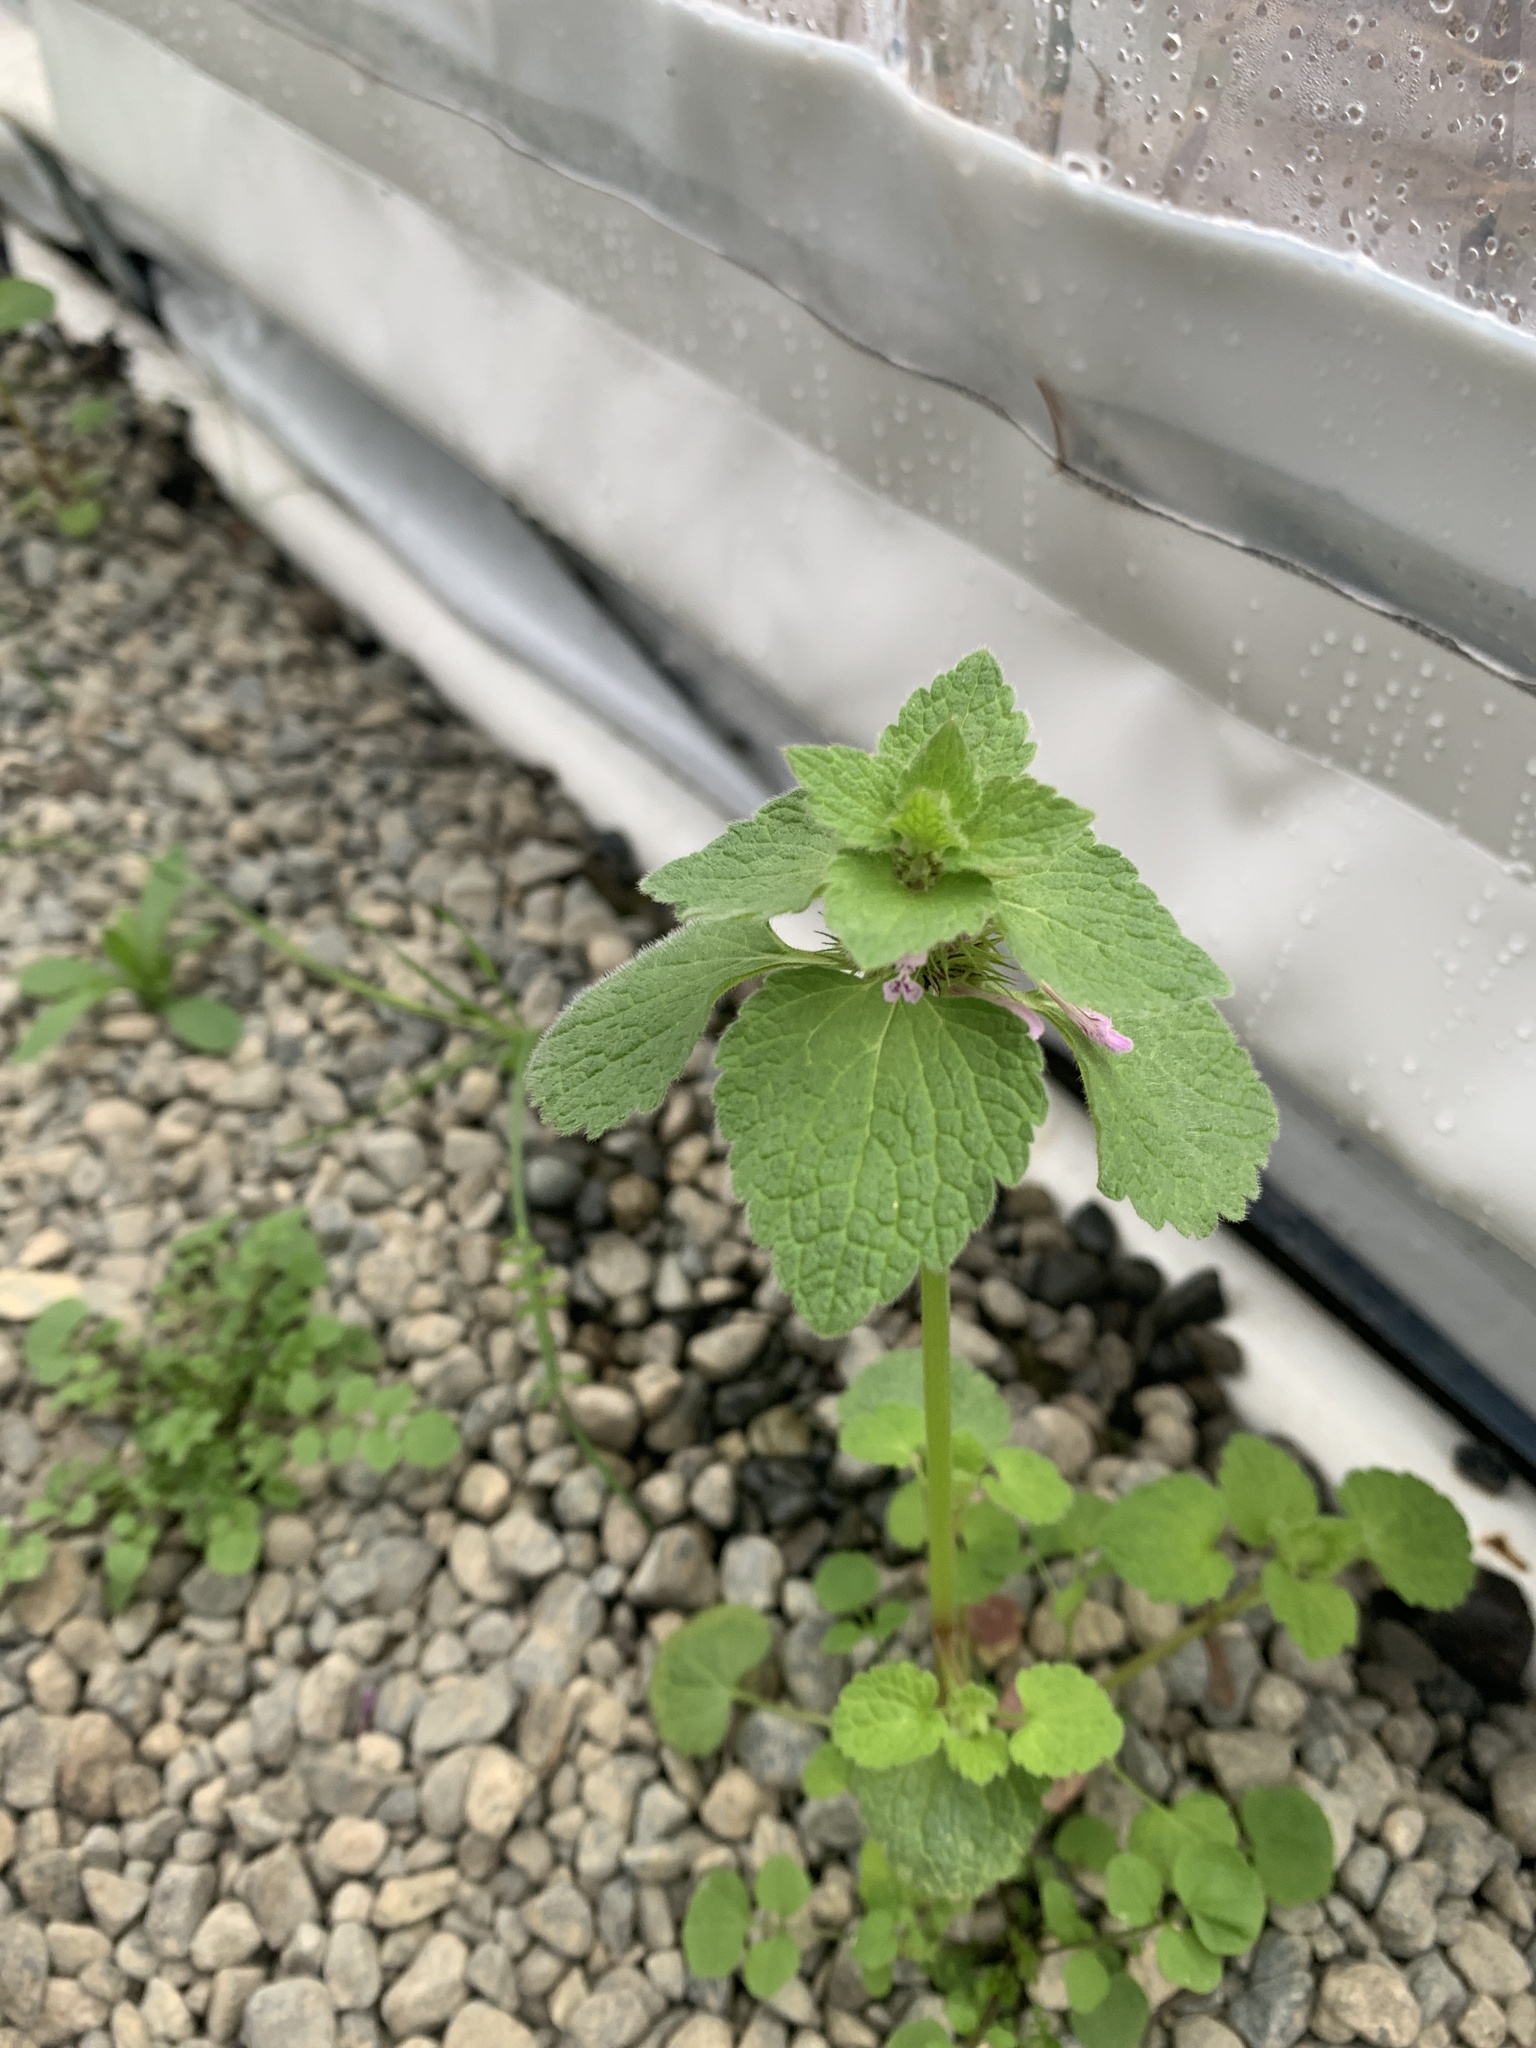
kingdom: Plantae
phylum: Tracheophyta
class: Magnoliopsida
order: Lamiales
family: Lamiaceae
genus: Lamium
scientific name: Lamium purpureum
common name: Red dead-nettle
